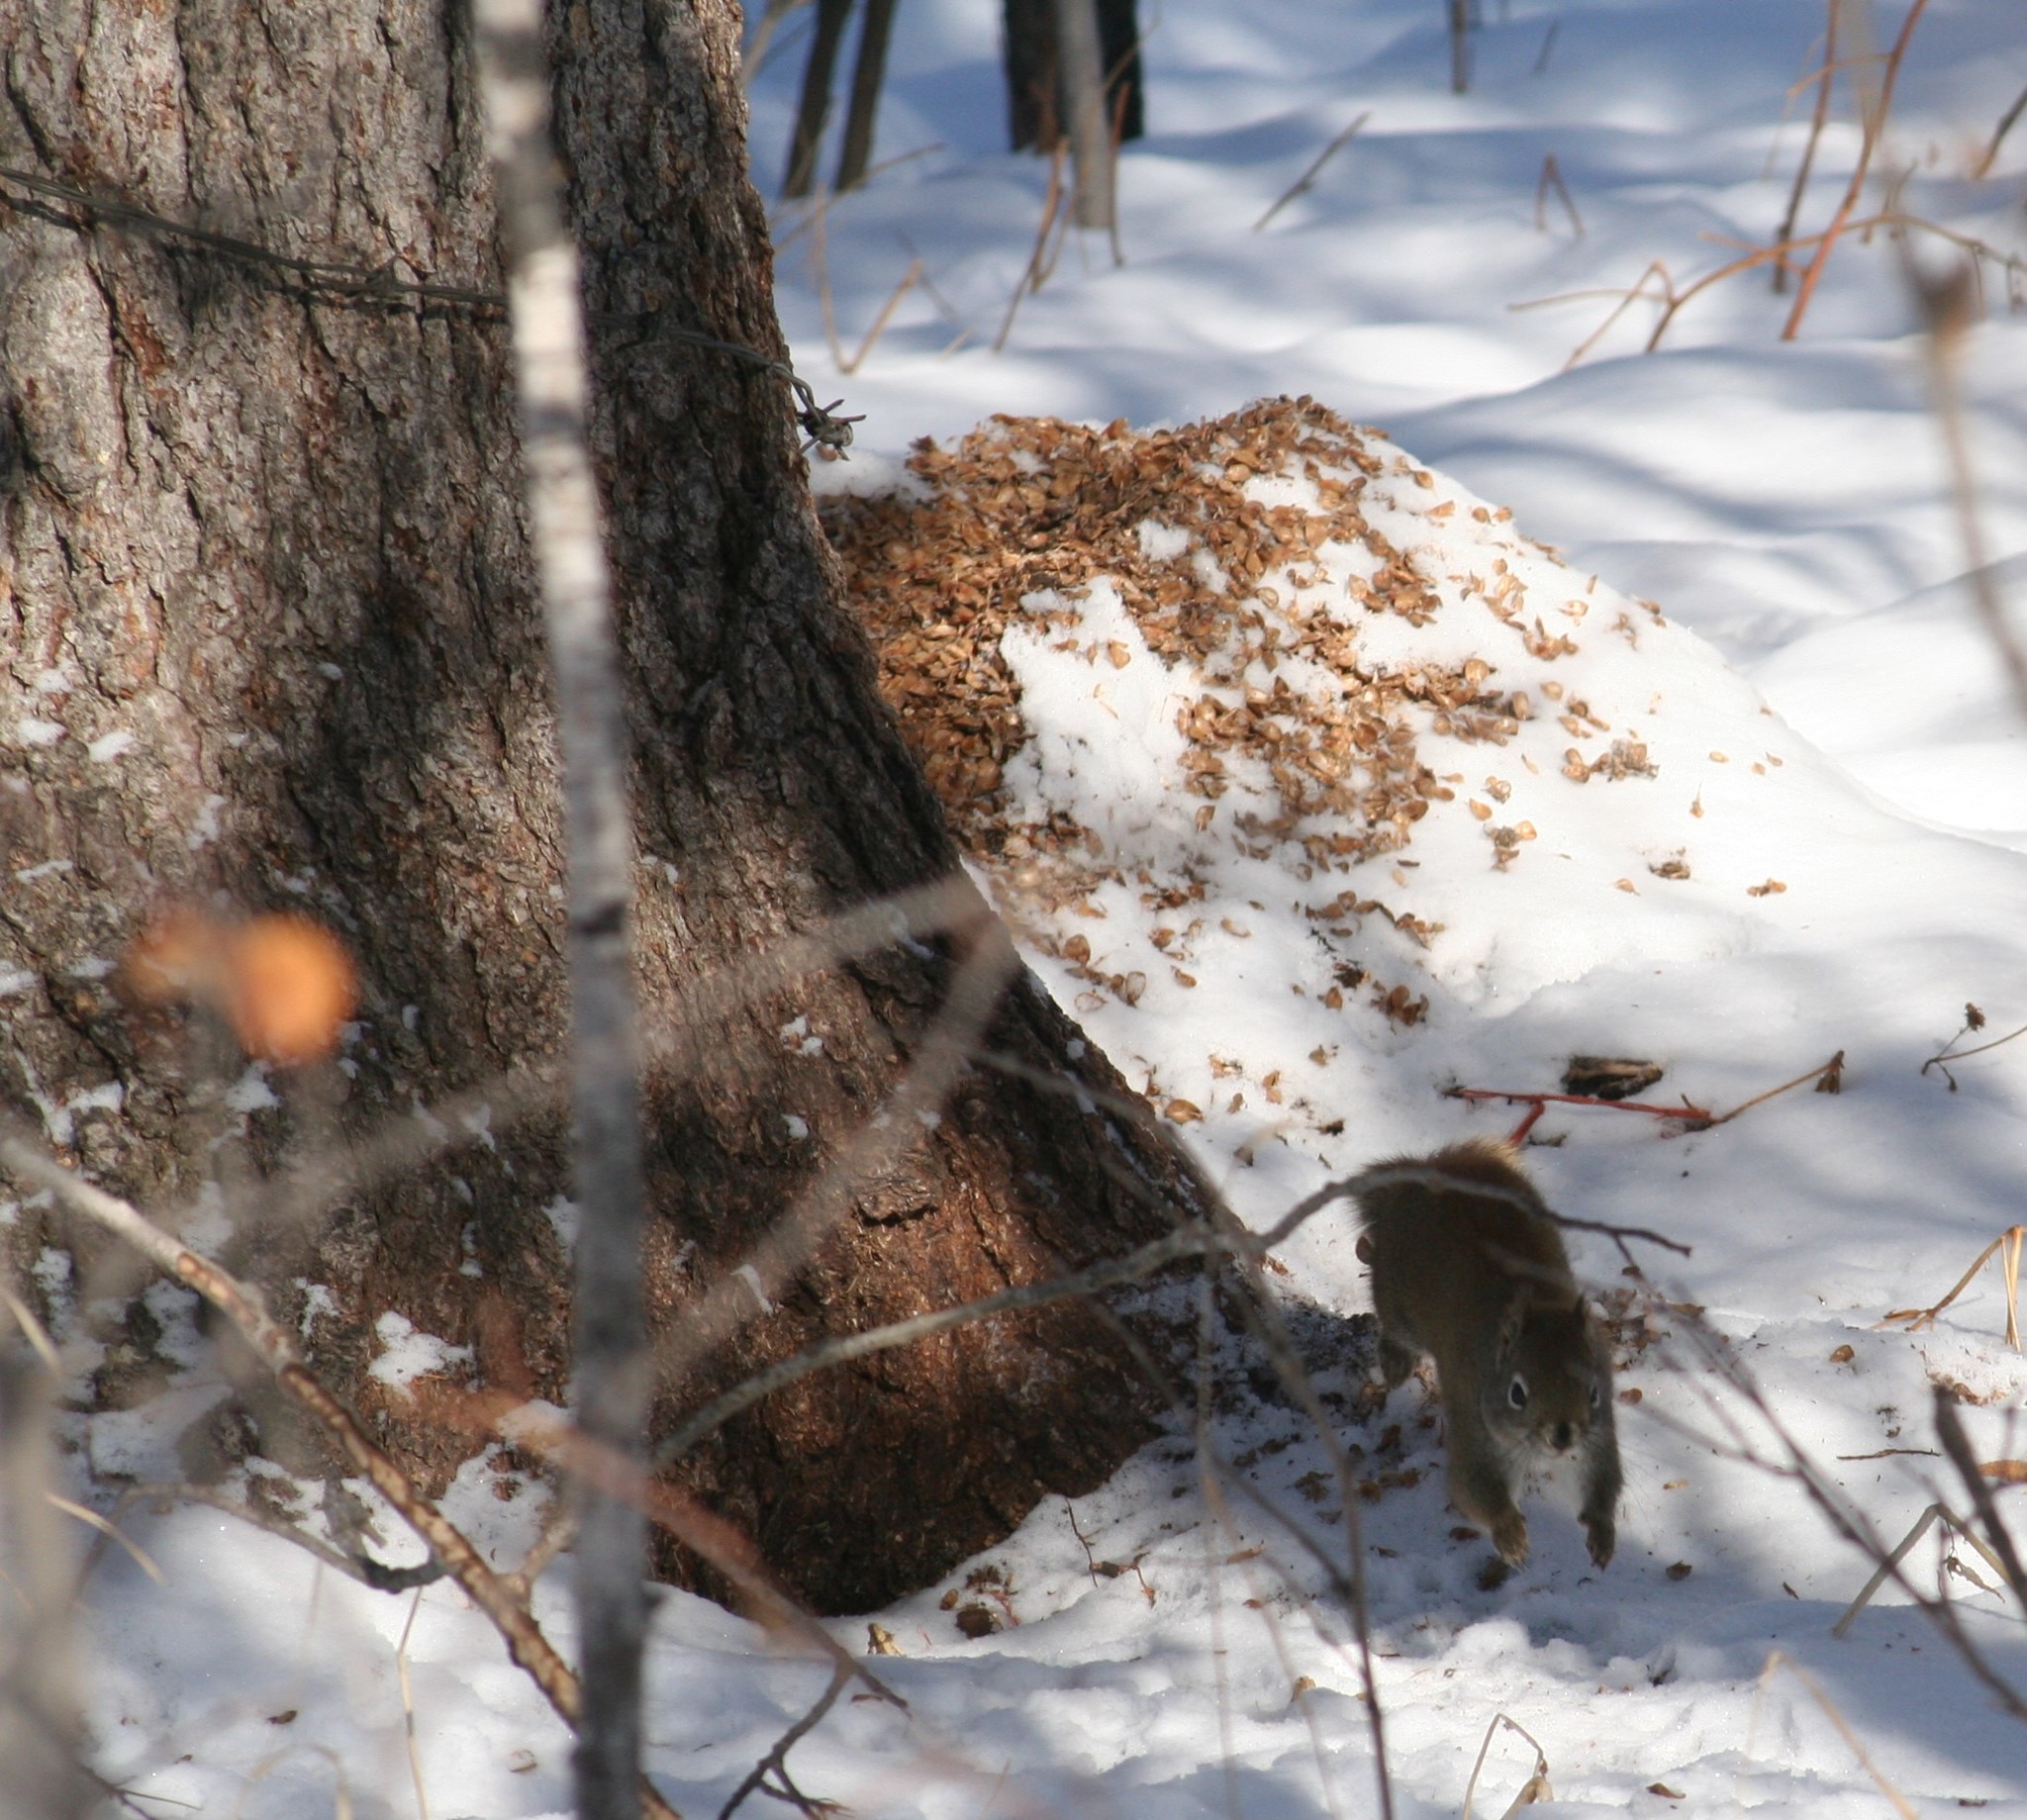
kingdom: Animalia
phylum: Chordata
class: Mammalia
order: Rodentia
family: Sciuridae
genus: Tamiasciurus
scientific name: Tamiasciurus hudsonicus
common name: Red squirrel
